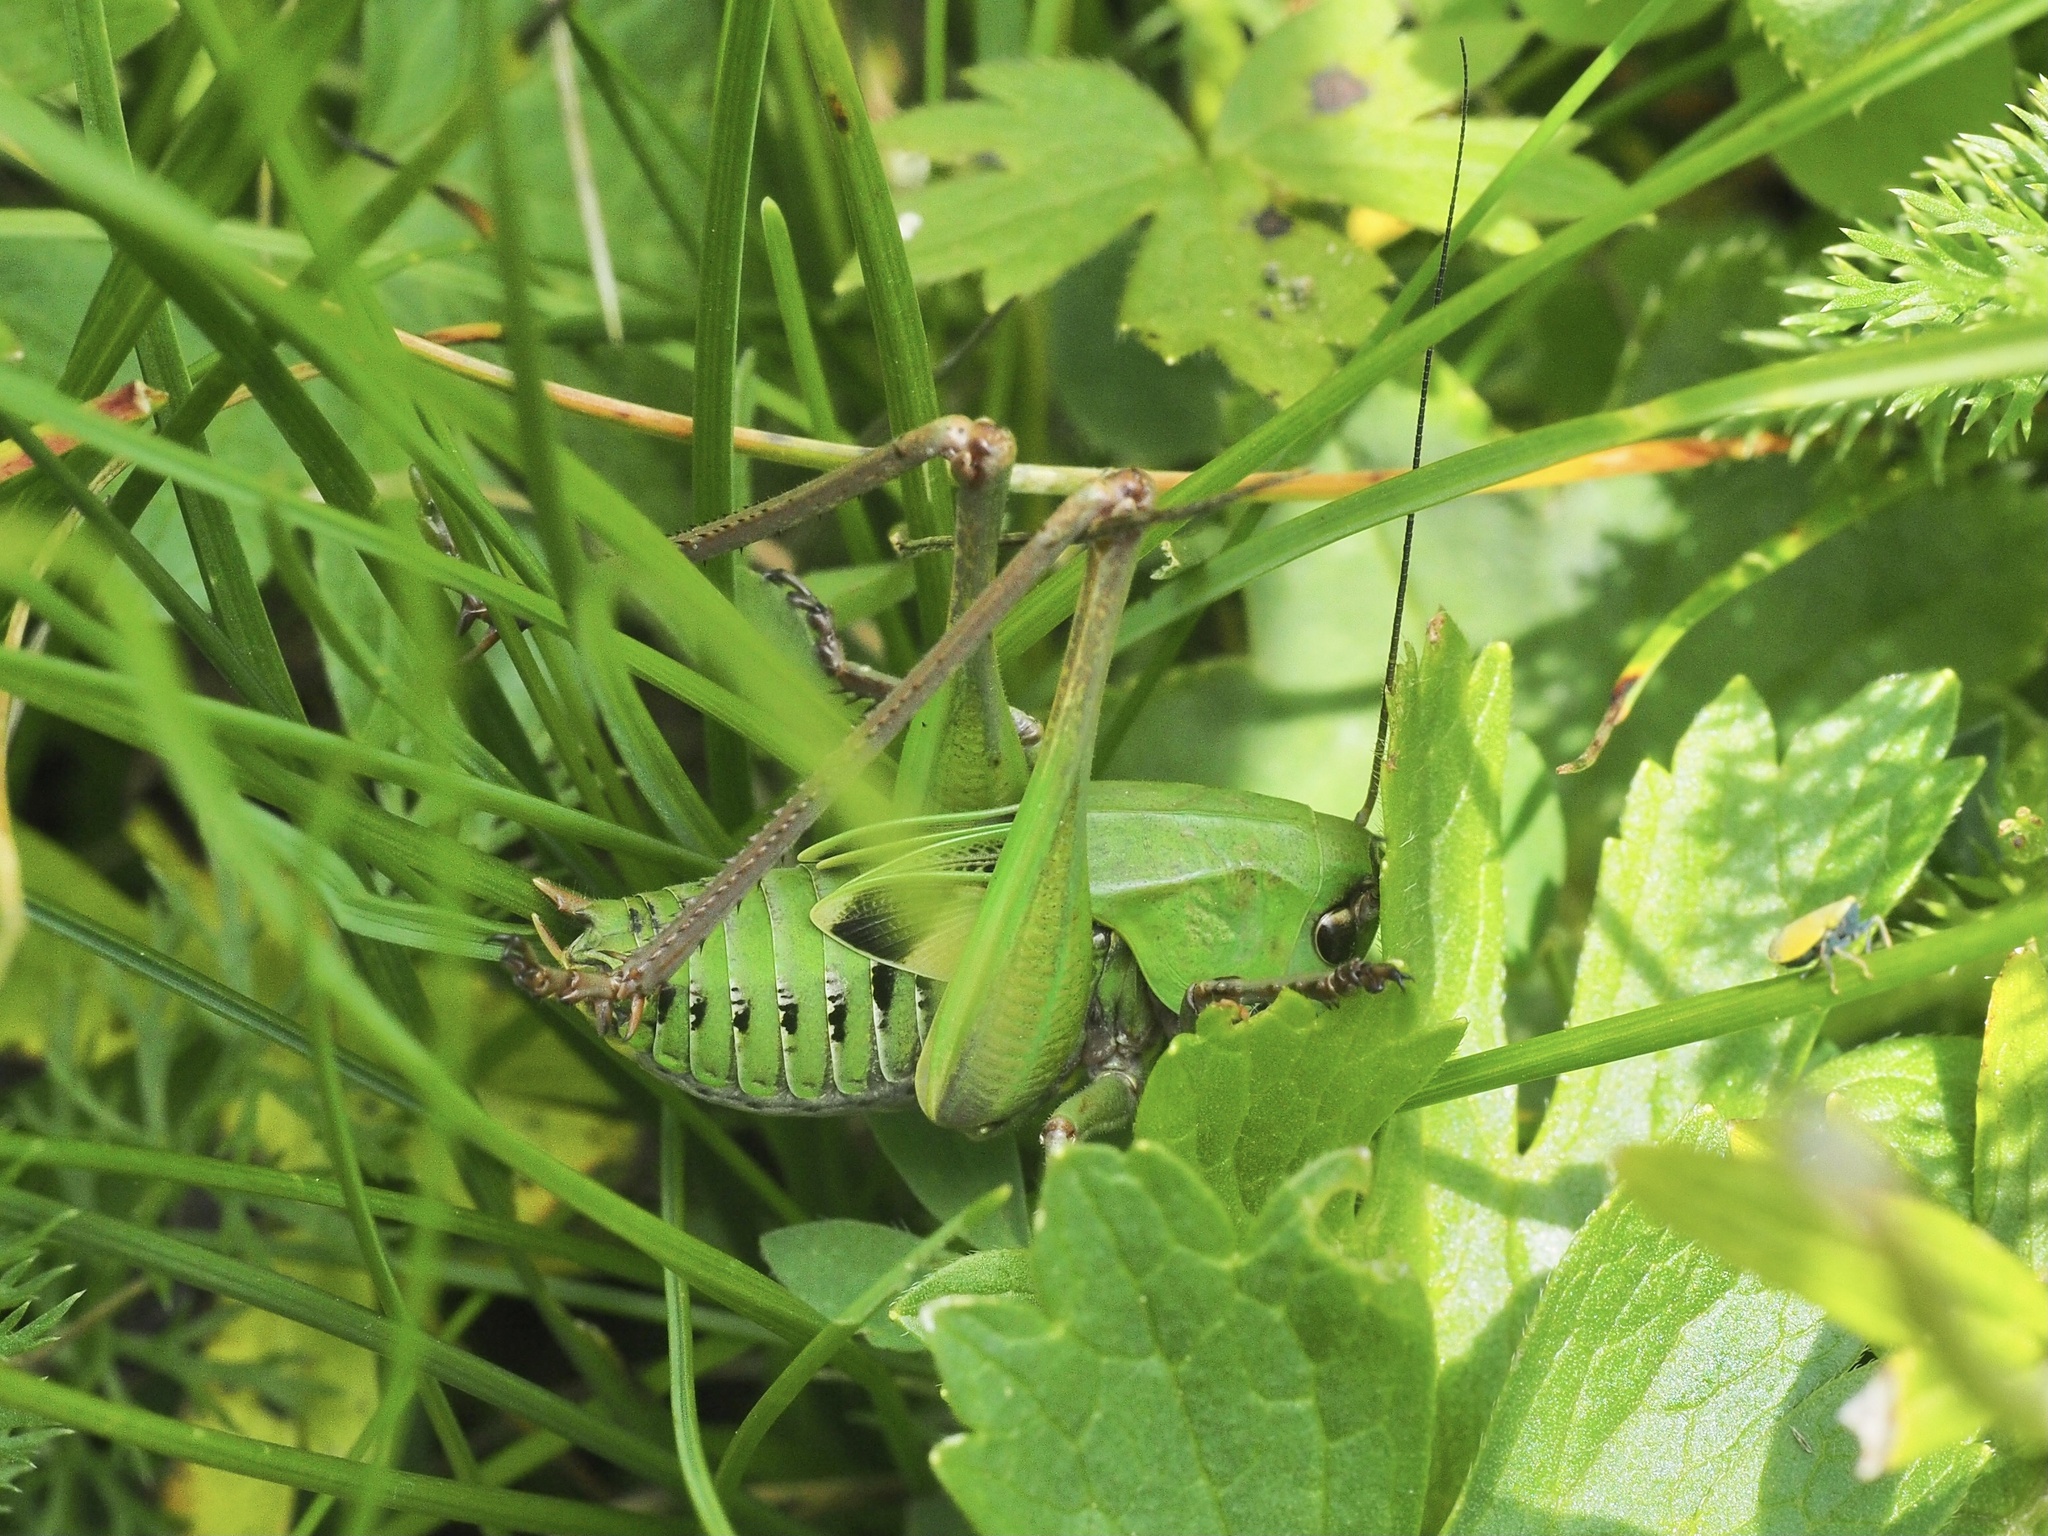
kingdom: Animalia
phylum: Arthropoda
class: Insecta
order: Orthoptera
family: Tettigoniidae
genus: Decticus
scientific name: Decticus verrucivorus
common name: Wart-biter
